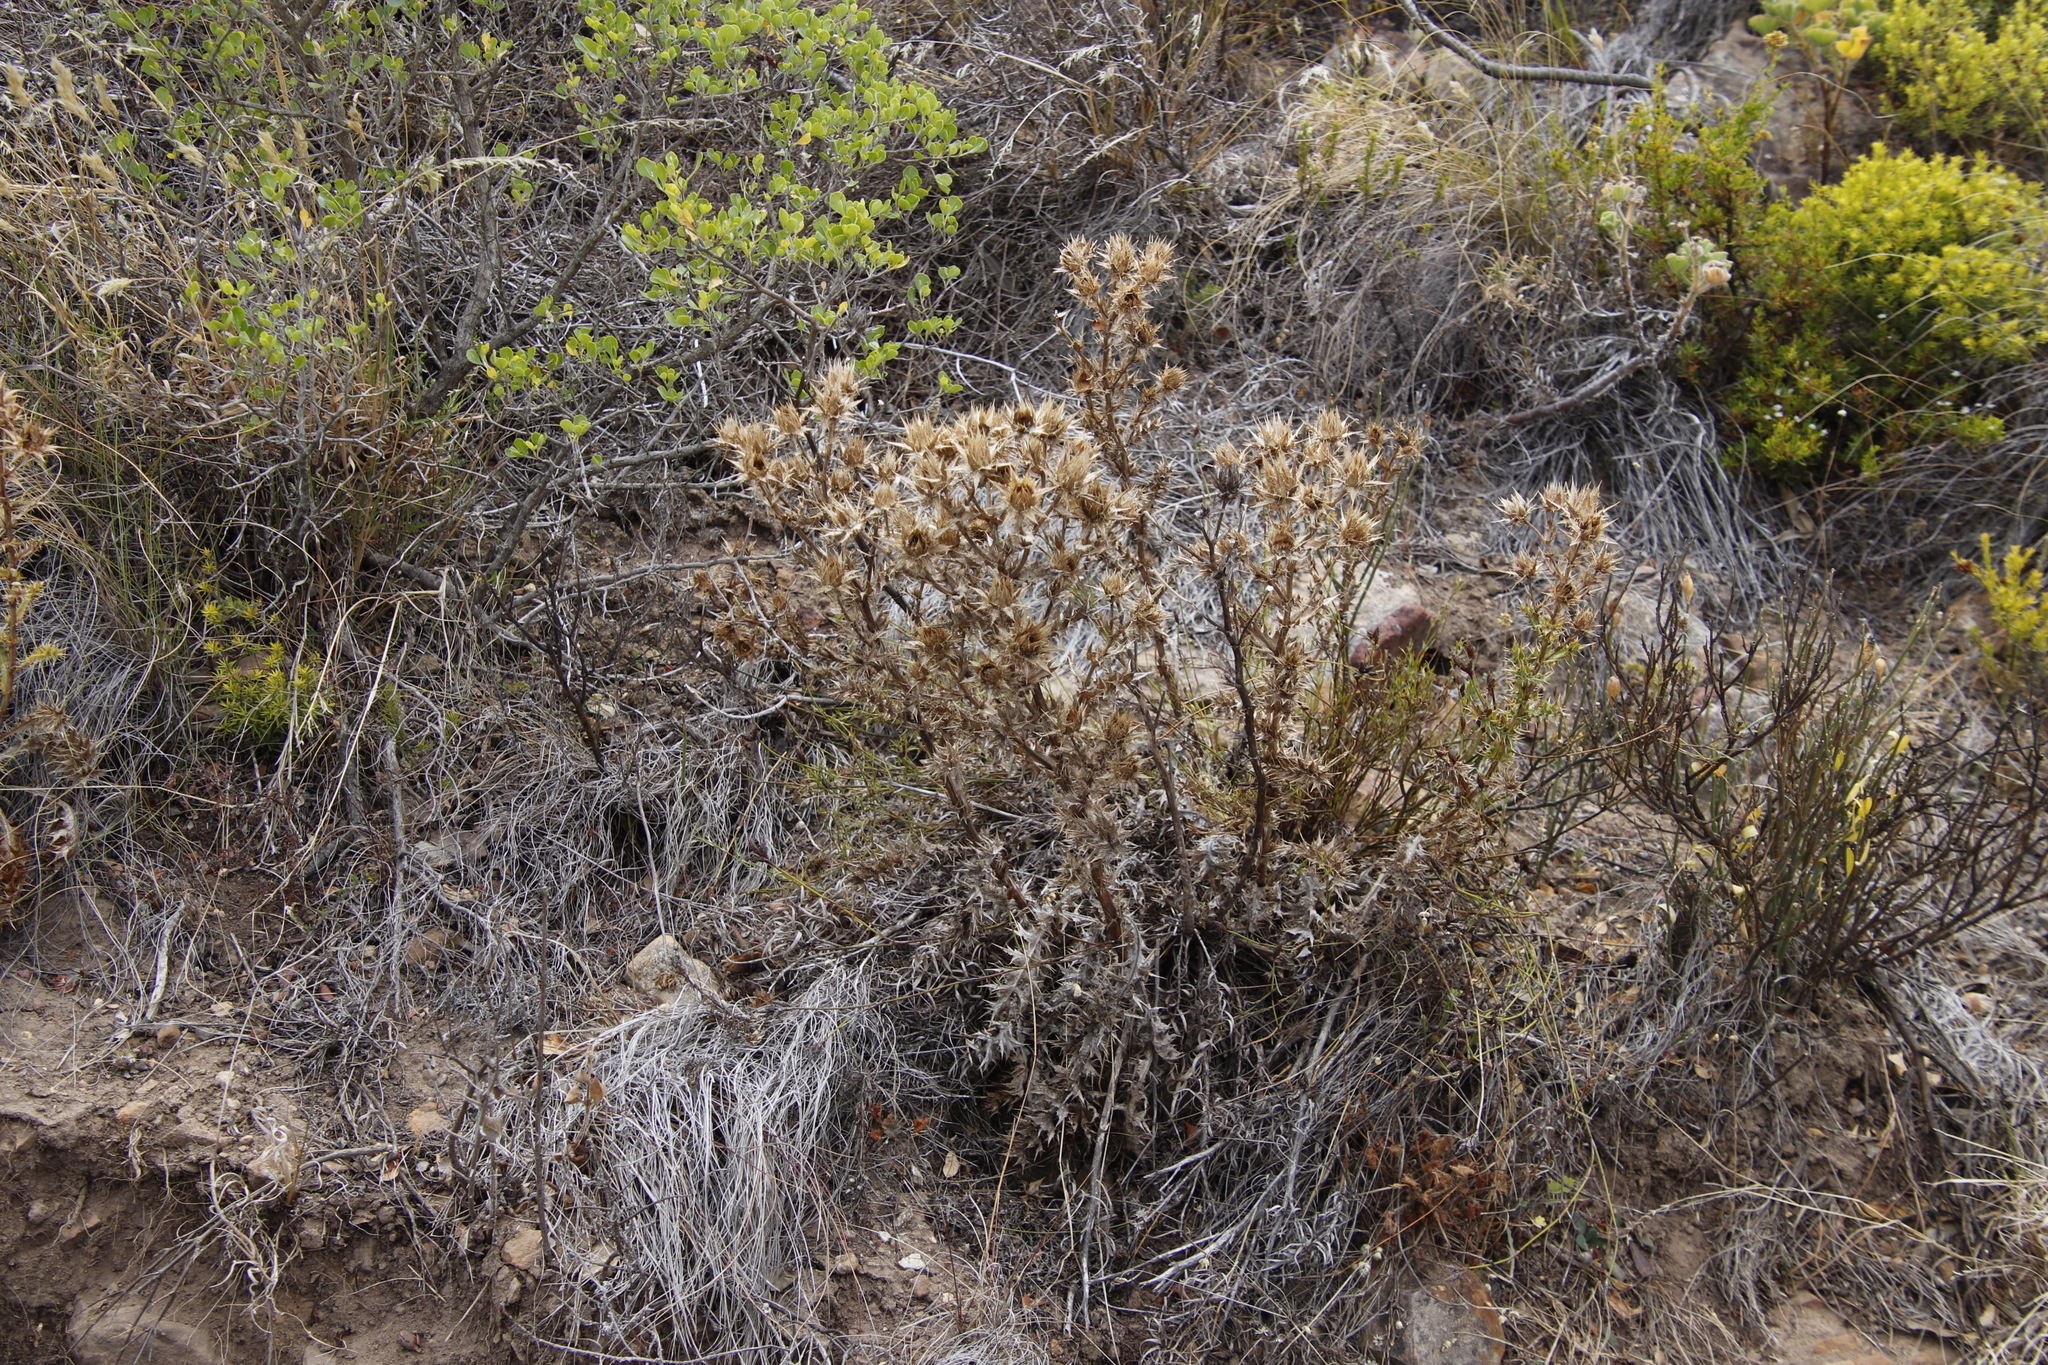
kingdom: Plantae
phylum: Tracheophyta
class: Magnoliopsida
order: Asterales
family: Asteraceae
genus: Berkheya
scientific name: Berkheya carlinifolia
